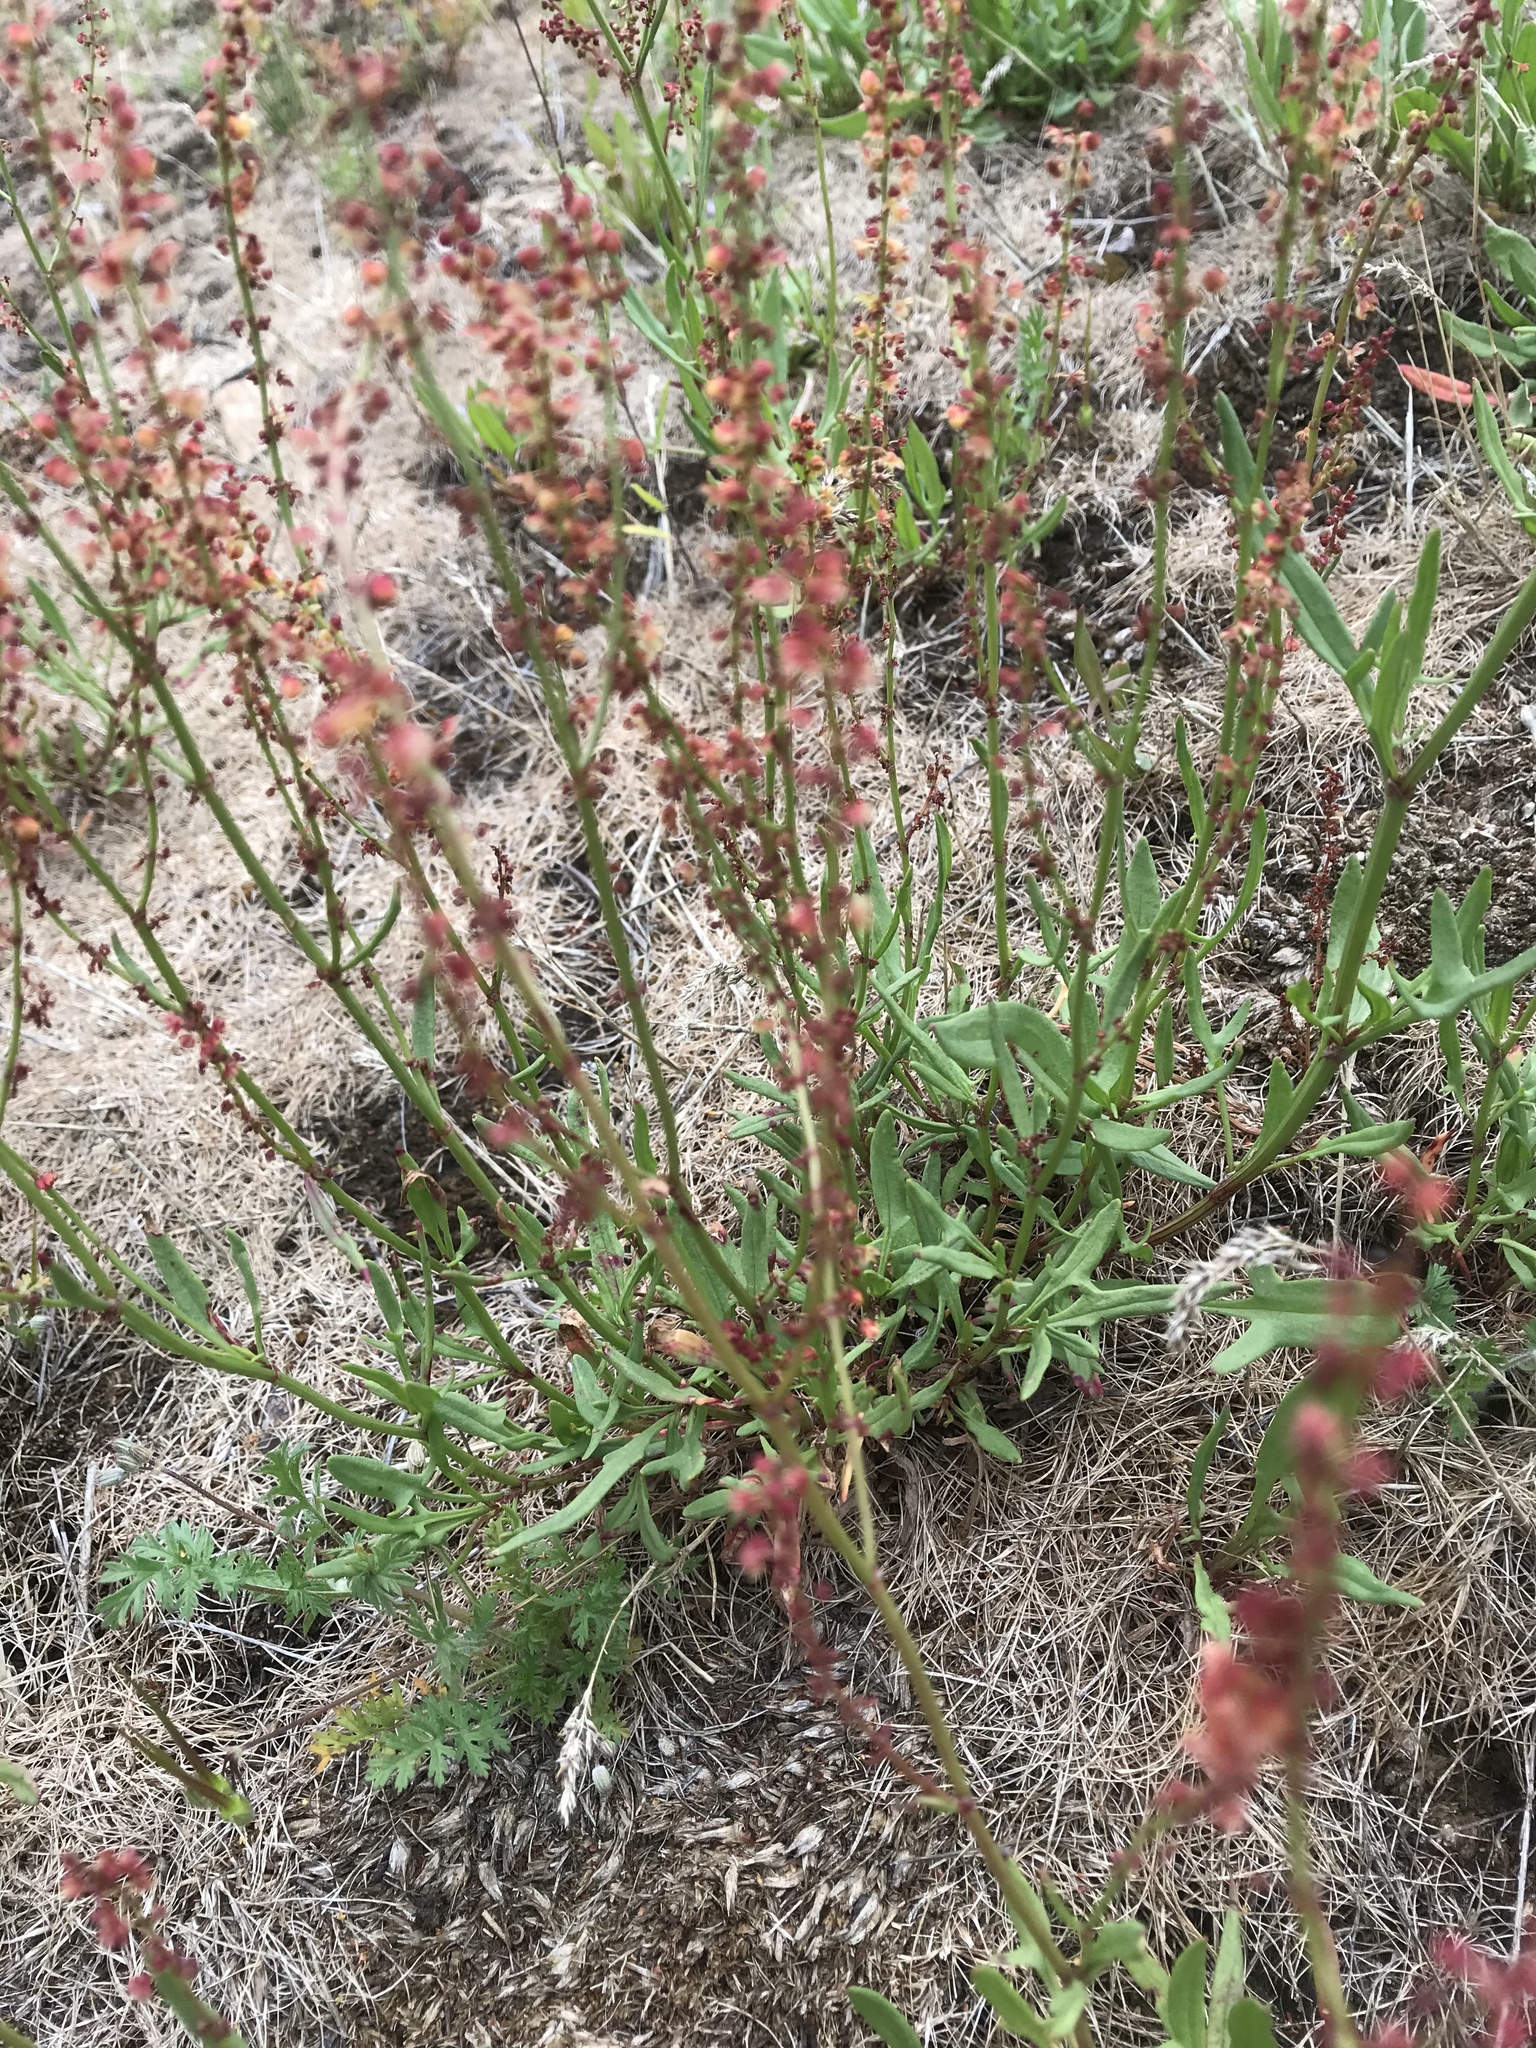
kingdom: Plantae
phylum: Tracheophyta
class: Magnoliopsida
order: Caryophyllales
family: Polygonaceae
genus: Rumex
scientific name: Rumex acetosella
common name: Common sheep sorrel
